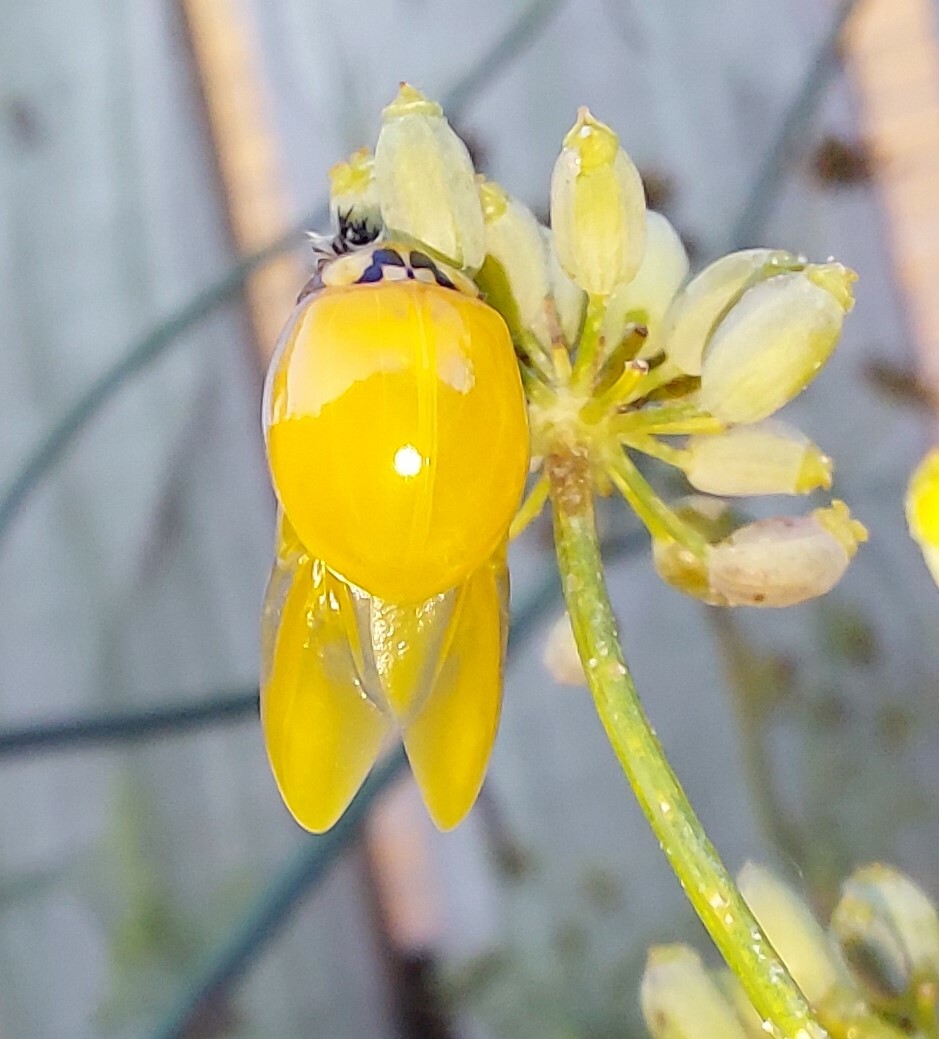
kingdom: Animalia
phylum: Arthropoda
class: Insecta
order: Coleoptera
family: Coccinellidae
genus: Harmonia
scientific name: Harmonia axyridis
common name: Harlequin ladybird
